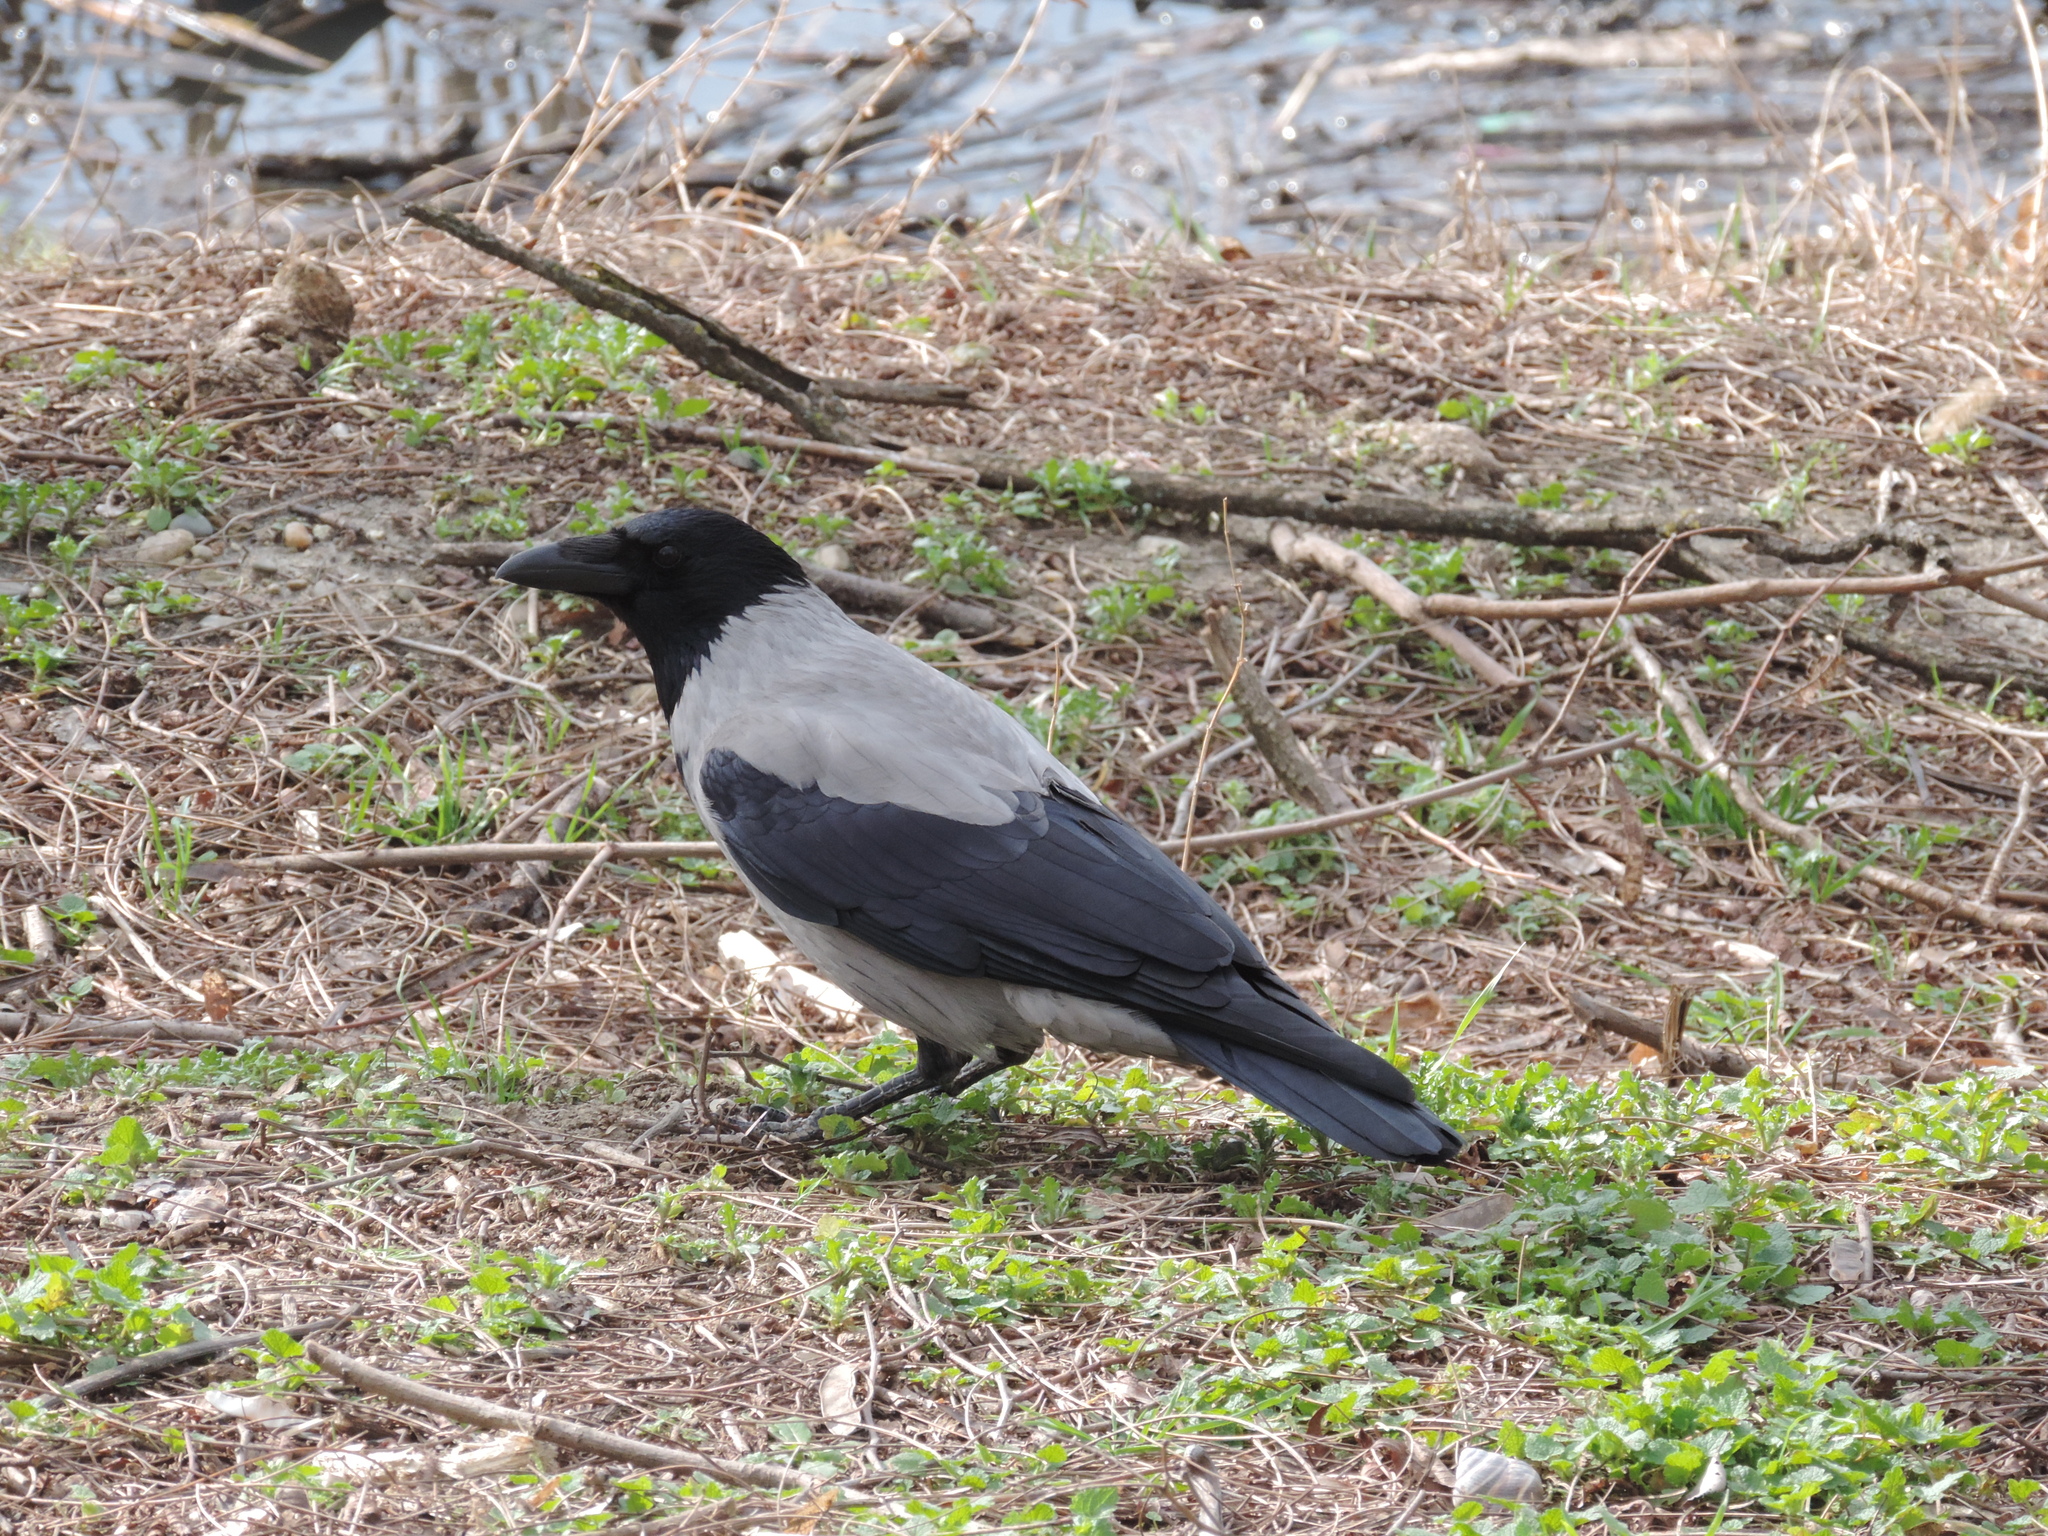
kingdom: Animalia
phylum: Chordata
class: Aves
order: Passeriformes
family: Corvidae
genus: Corvus
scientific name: Corvus cornix
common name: Hooded crow
